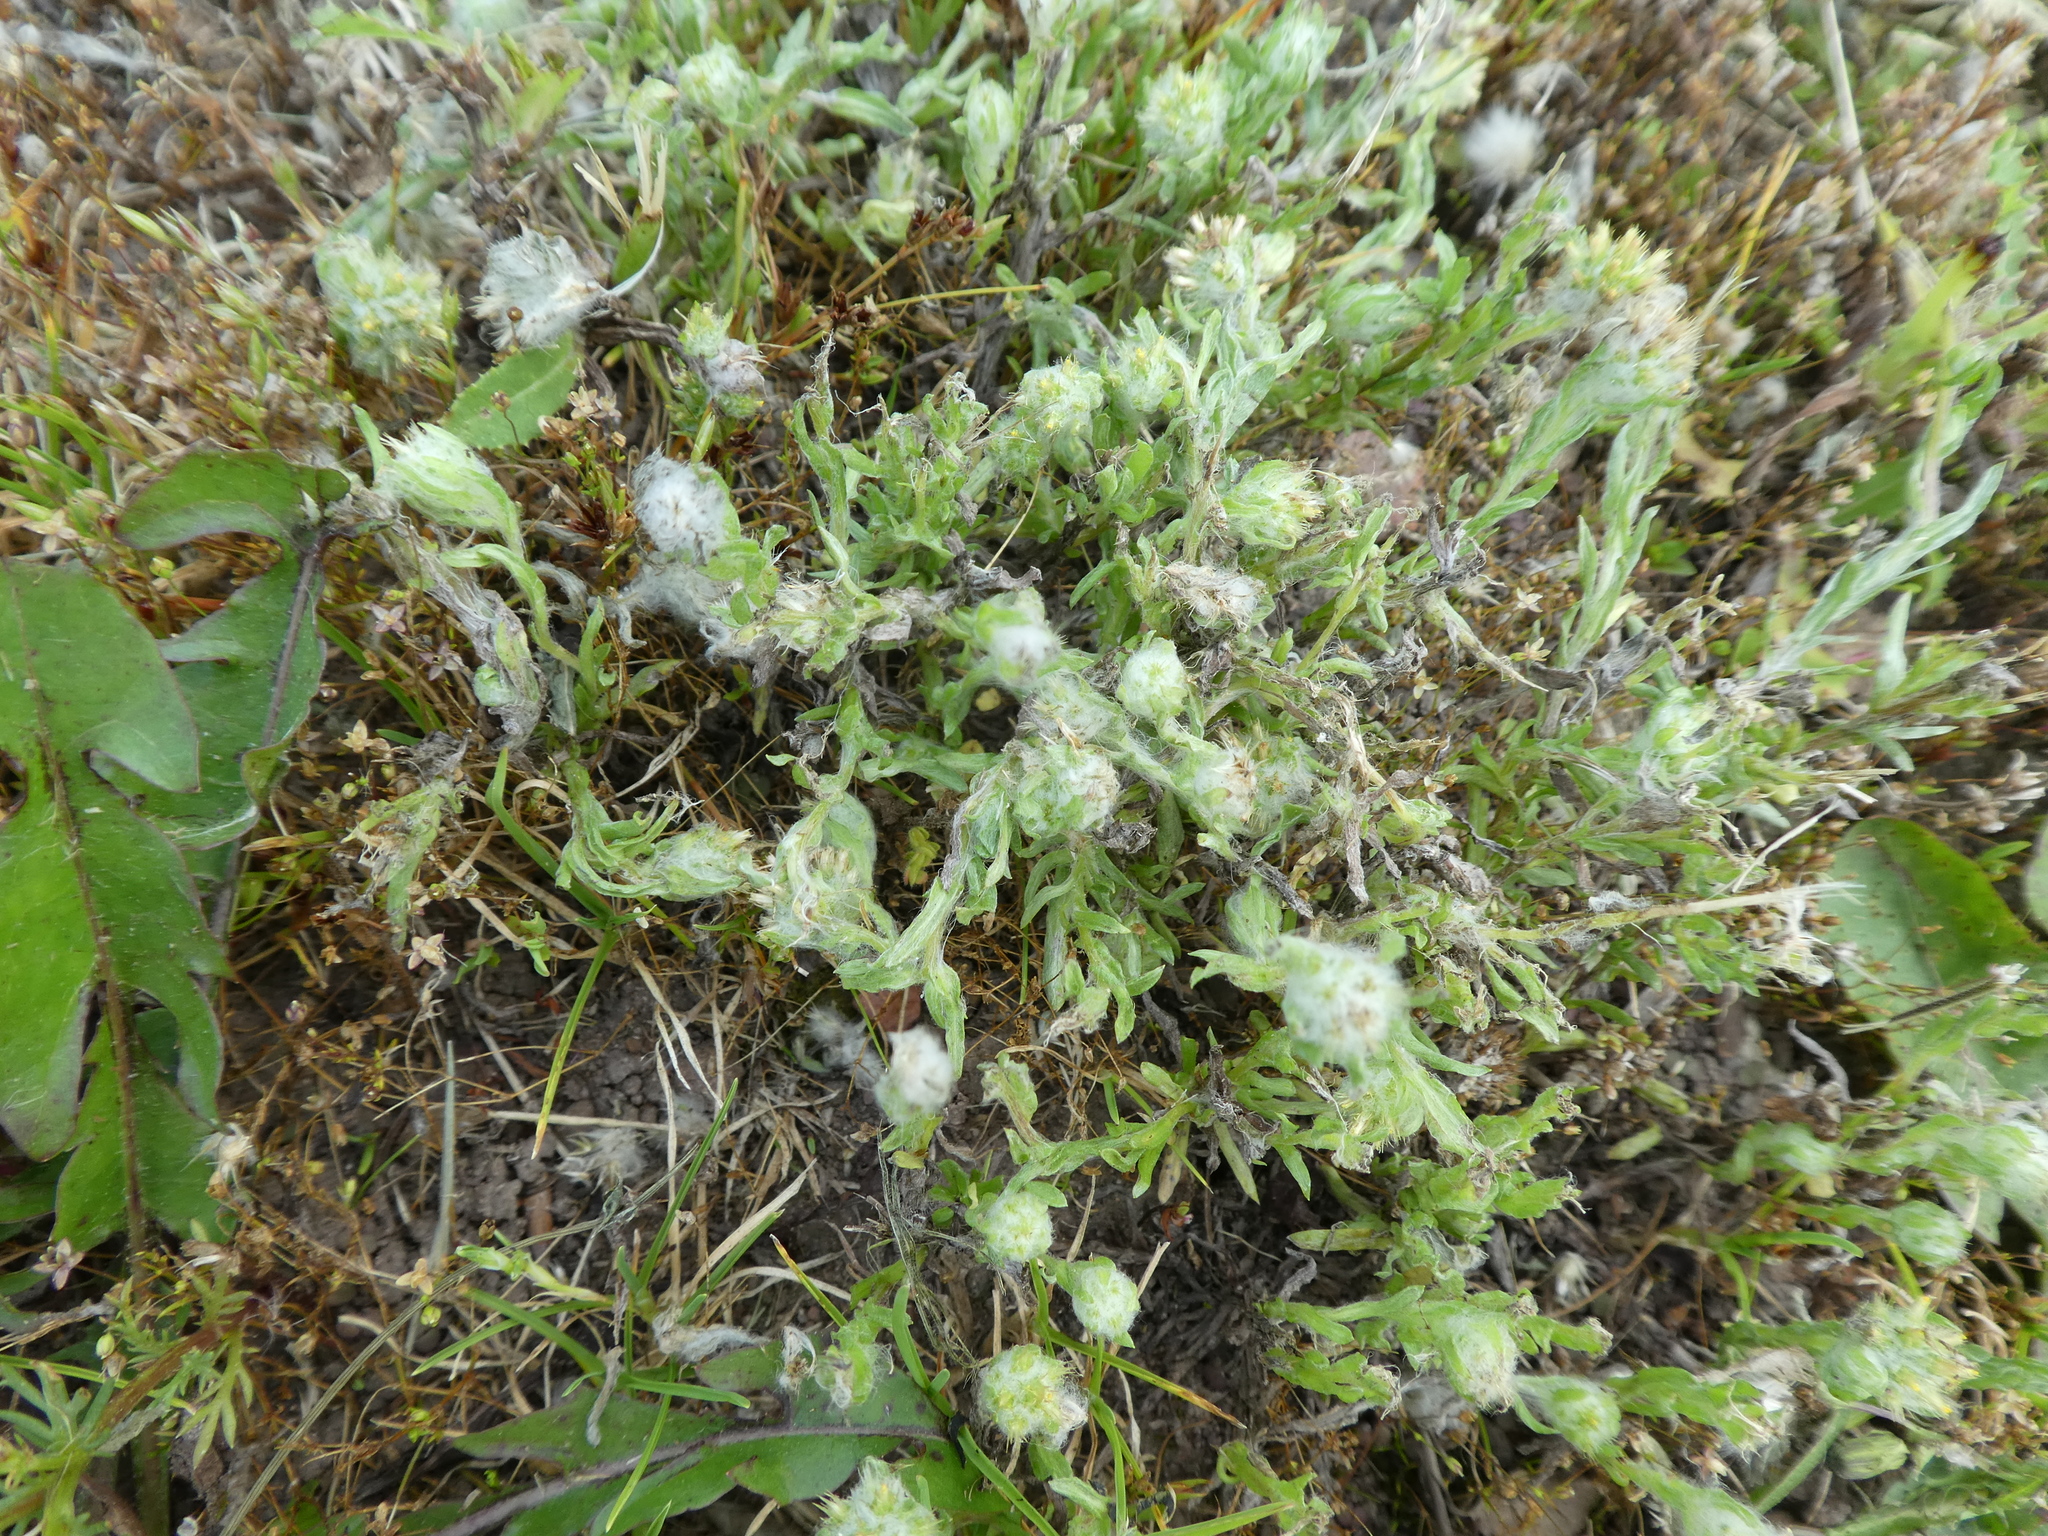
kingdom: Plantae
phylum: Tracheophyta
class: Magnoliopsida
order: Asterales
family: Asteraceae
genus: Filago
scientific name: Filago germanica
